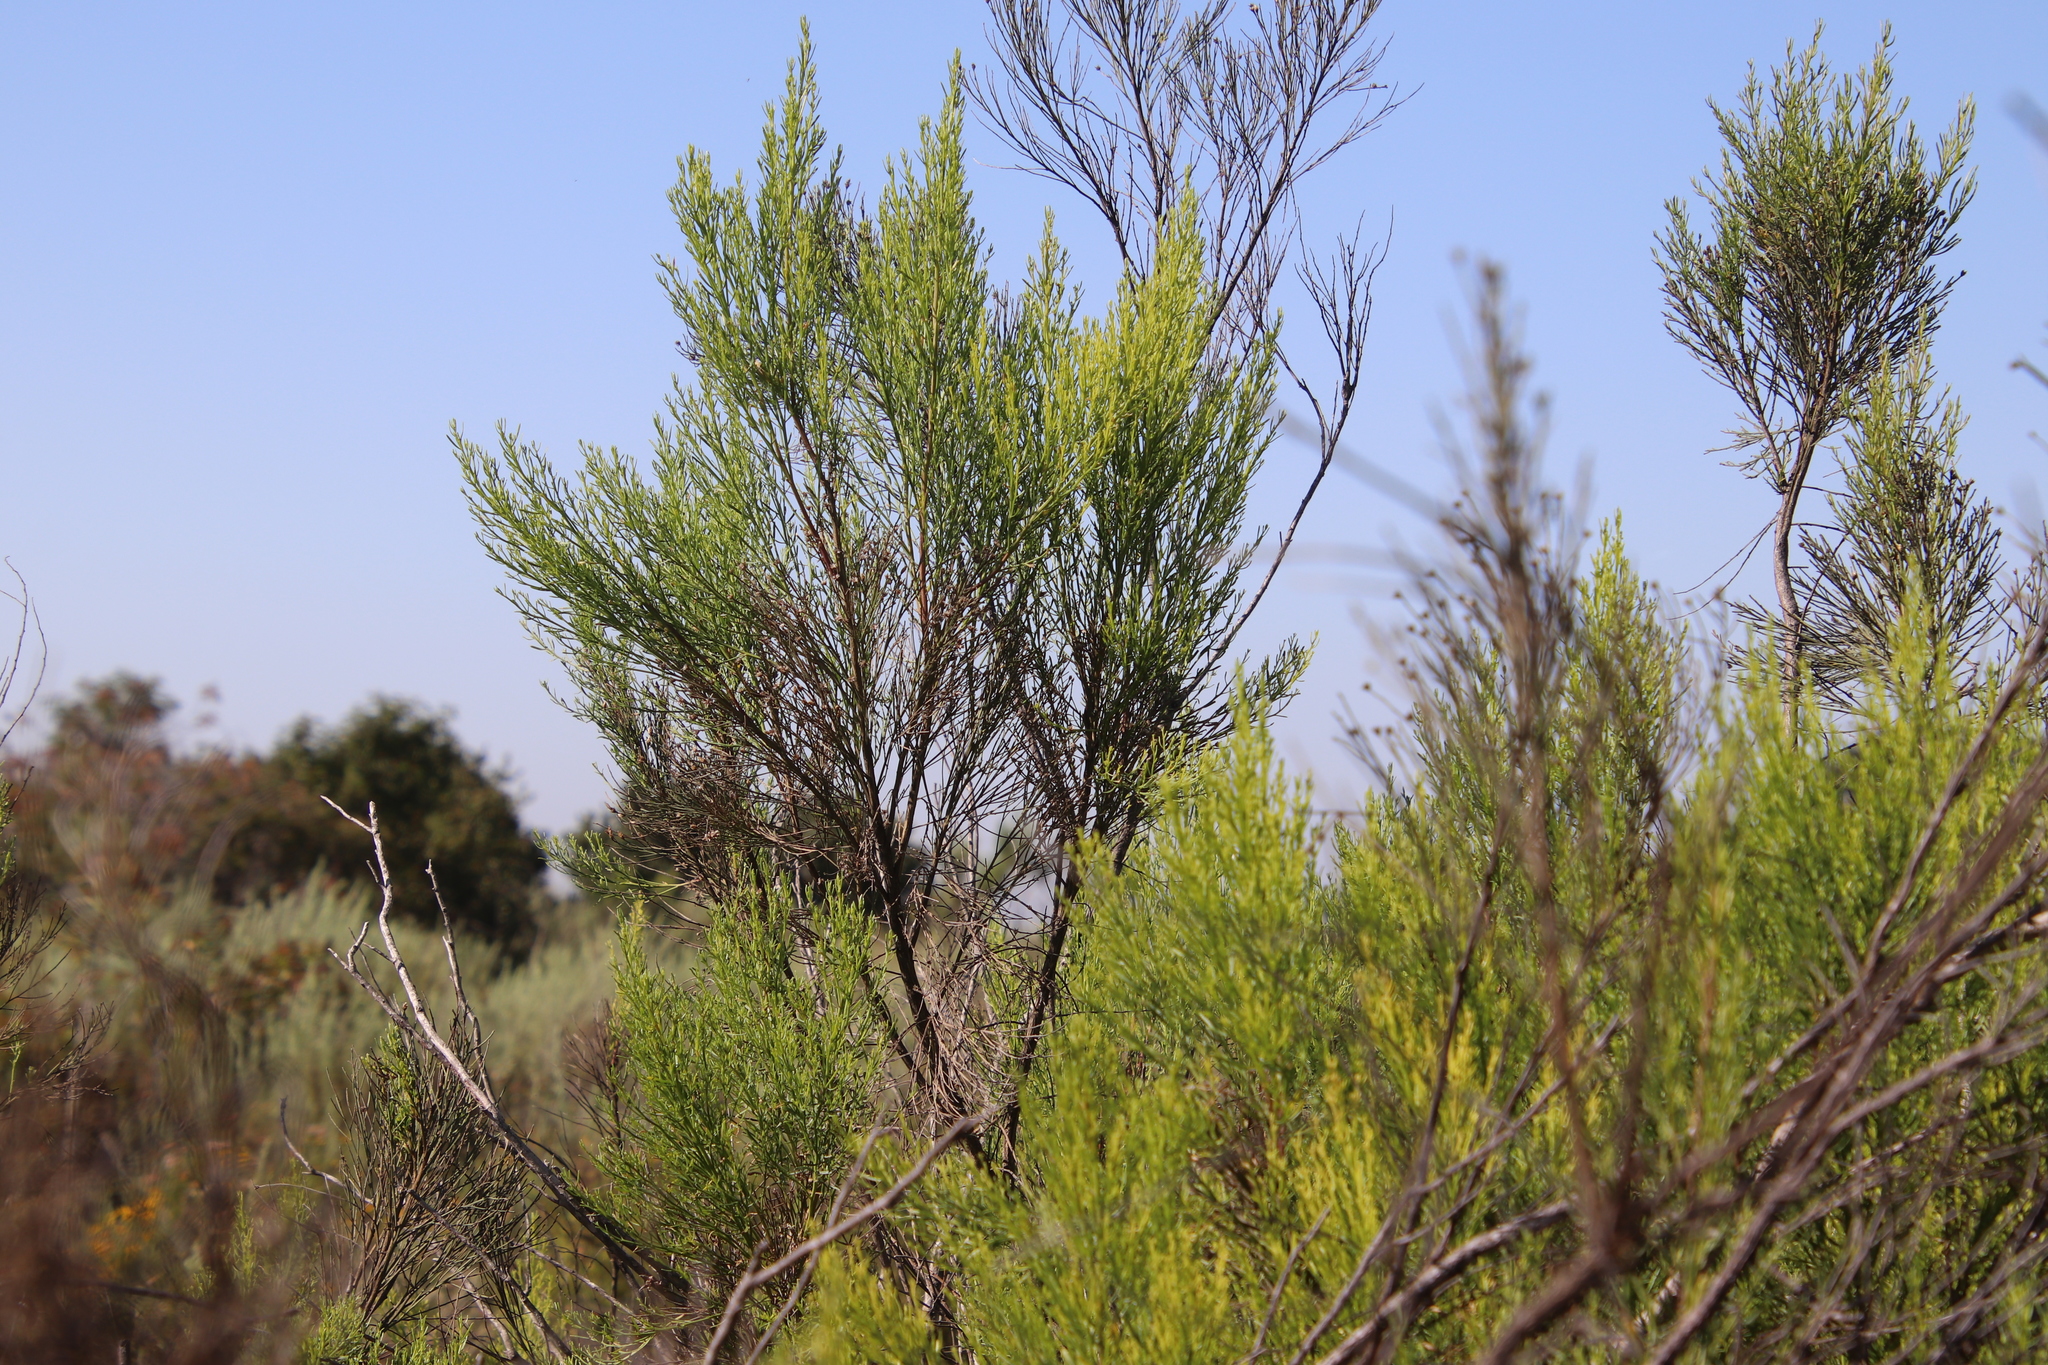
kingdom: Plantae
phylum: Tracheophyta
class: Magnoliopsida
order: Asterales
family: Asteraceae
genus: Baccharis
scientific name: Baccharis sarothroides
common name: Desert-broom
